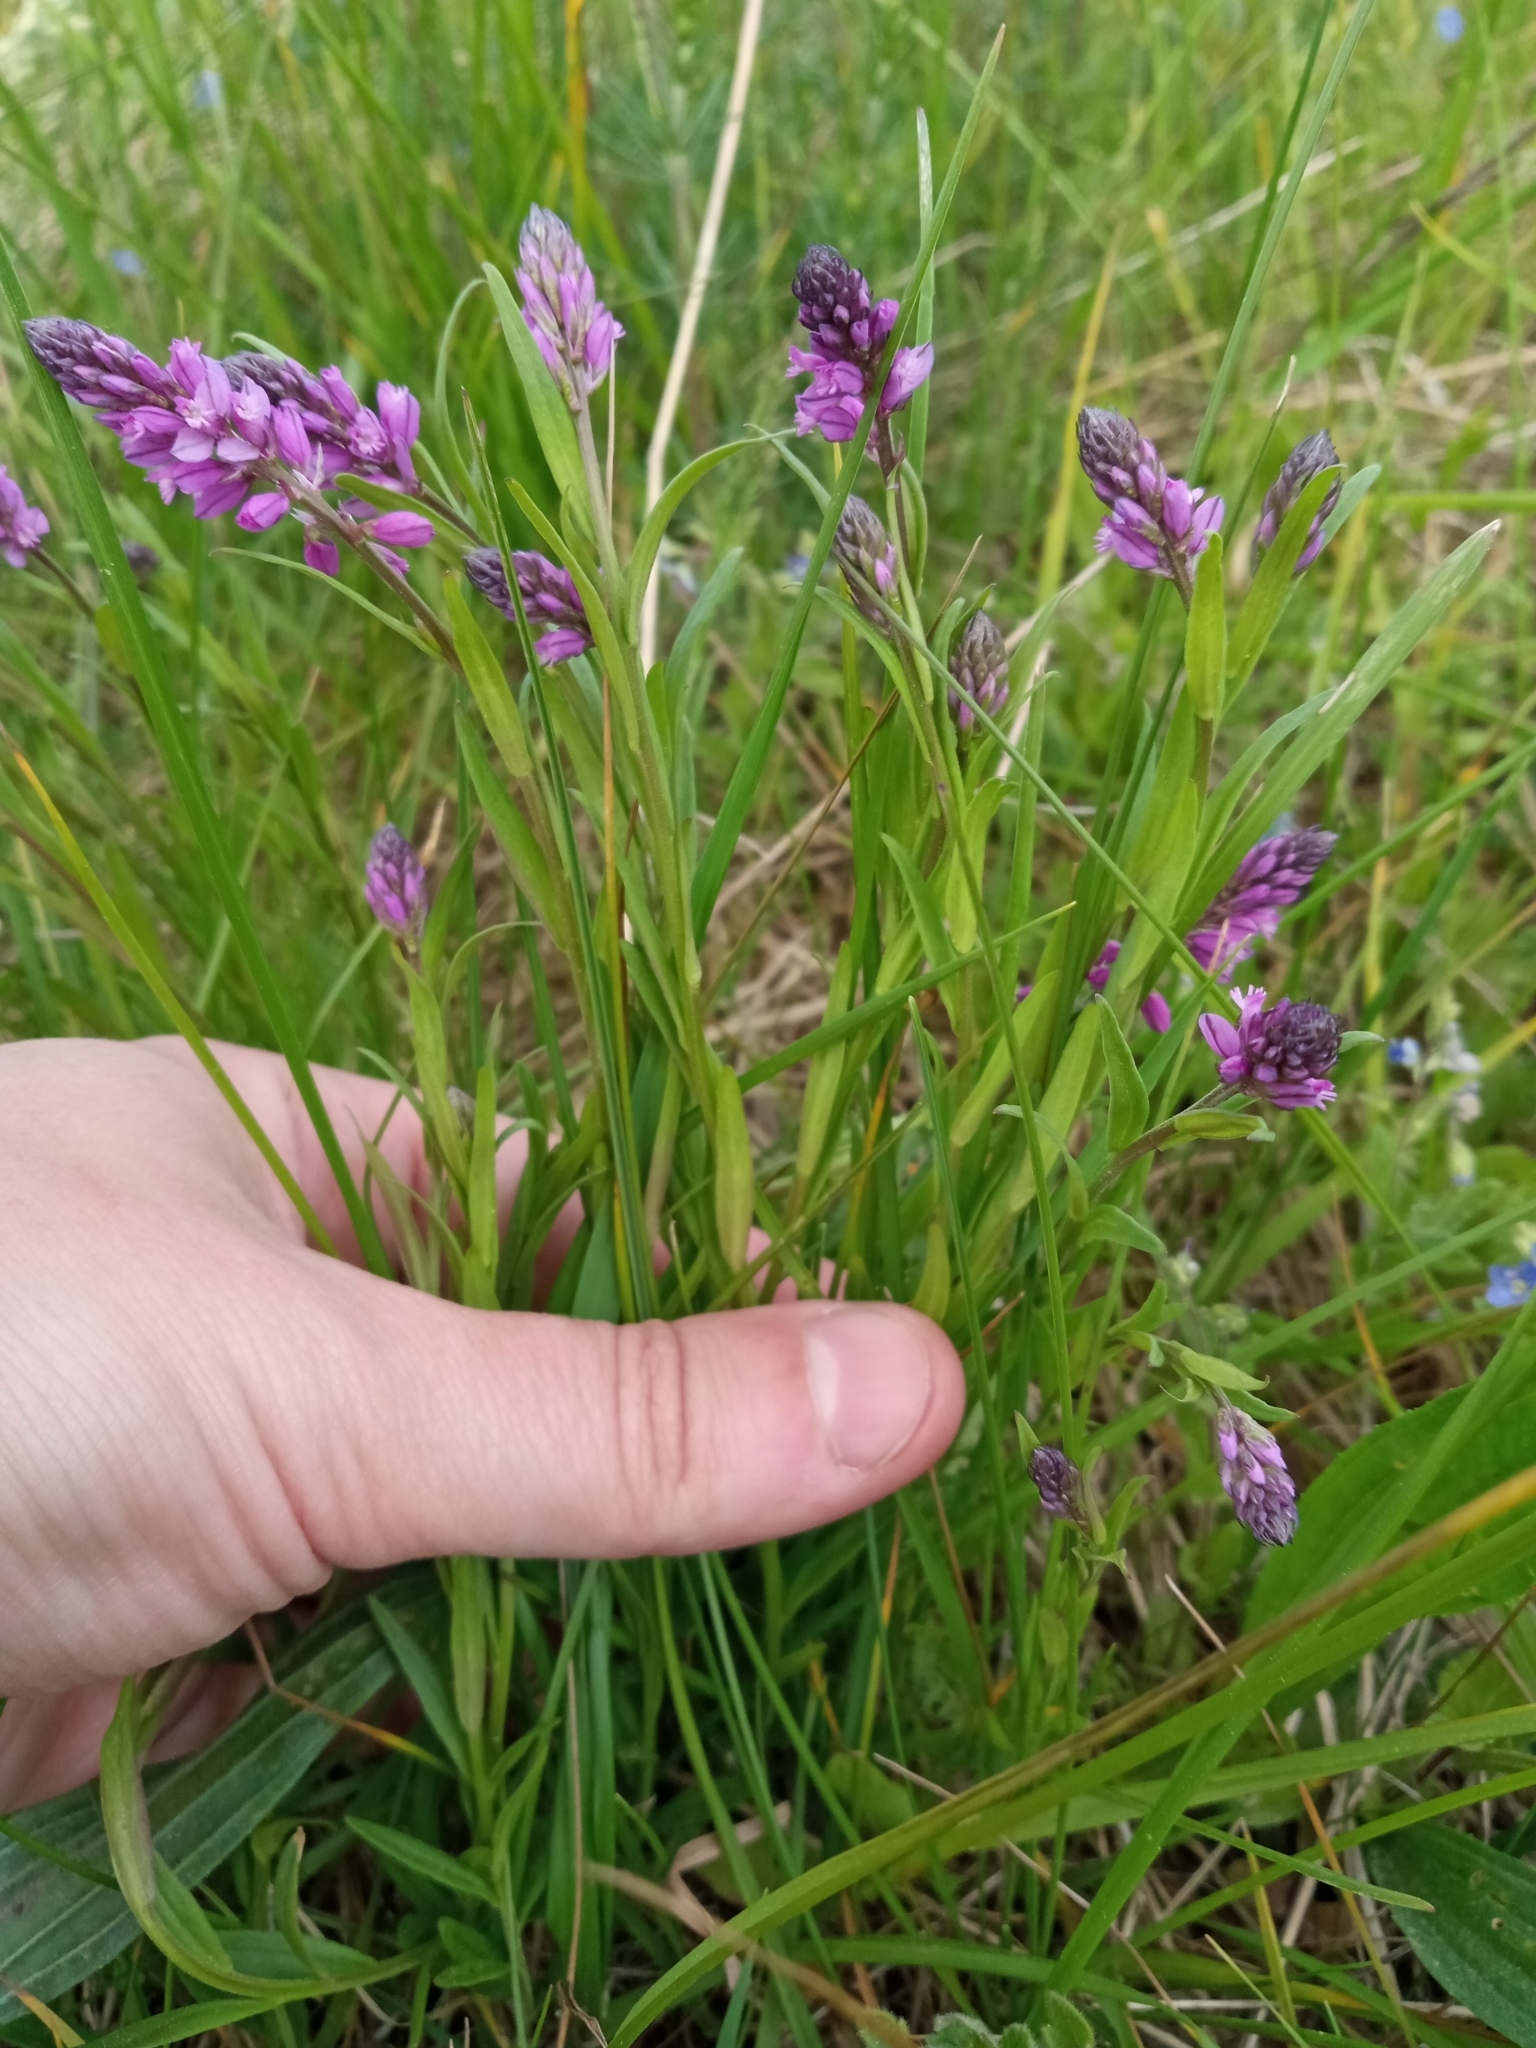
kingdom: Plantae
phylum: Tracheophyta
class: Magnoliopsida
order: Fabales
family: Polygalaceae
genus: Polygala
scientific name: Polygala comosa
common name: Tufted milkwort
